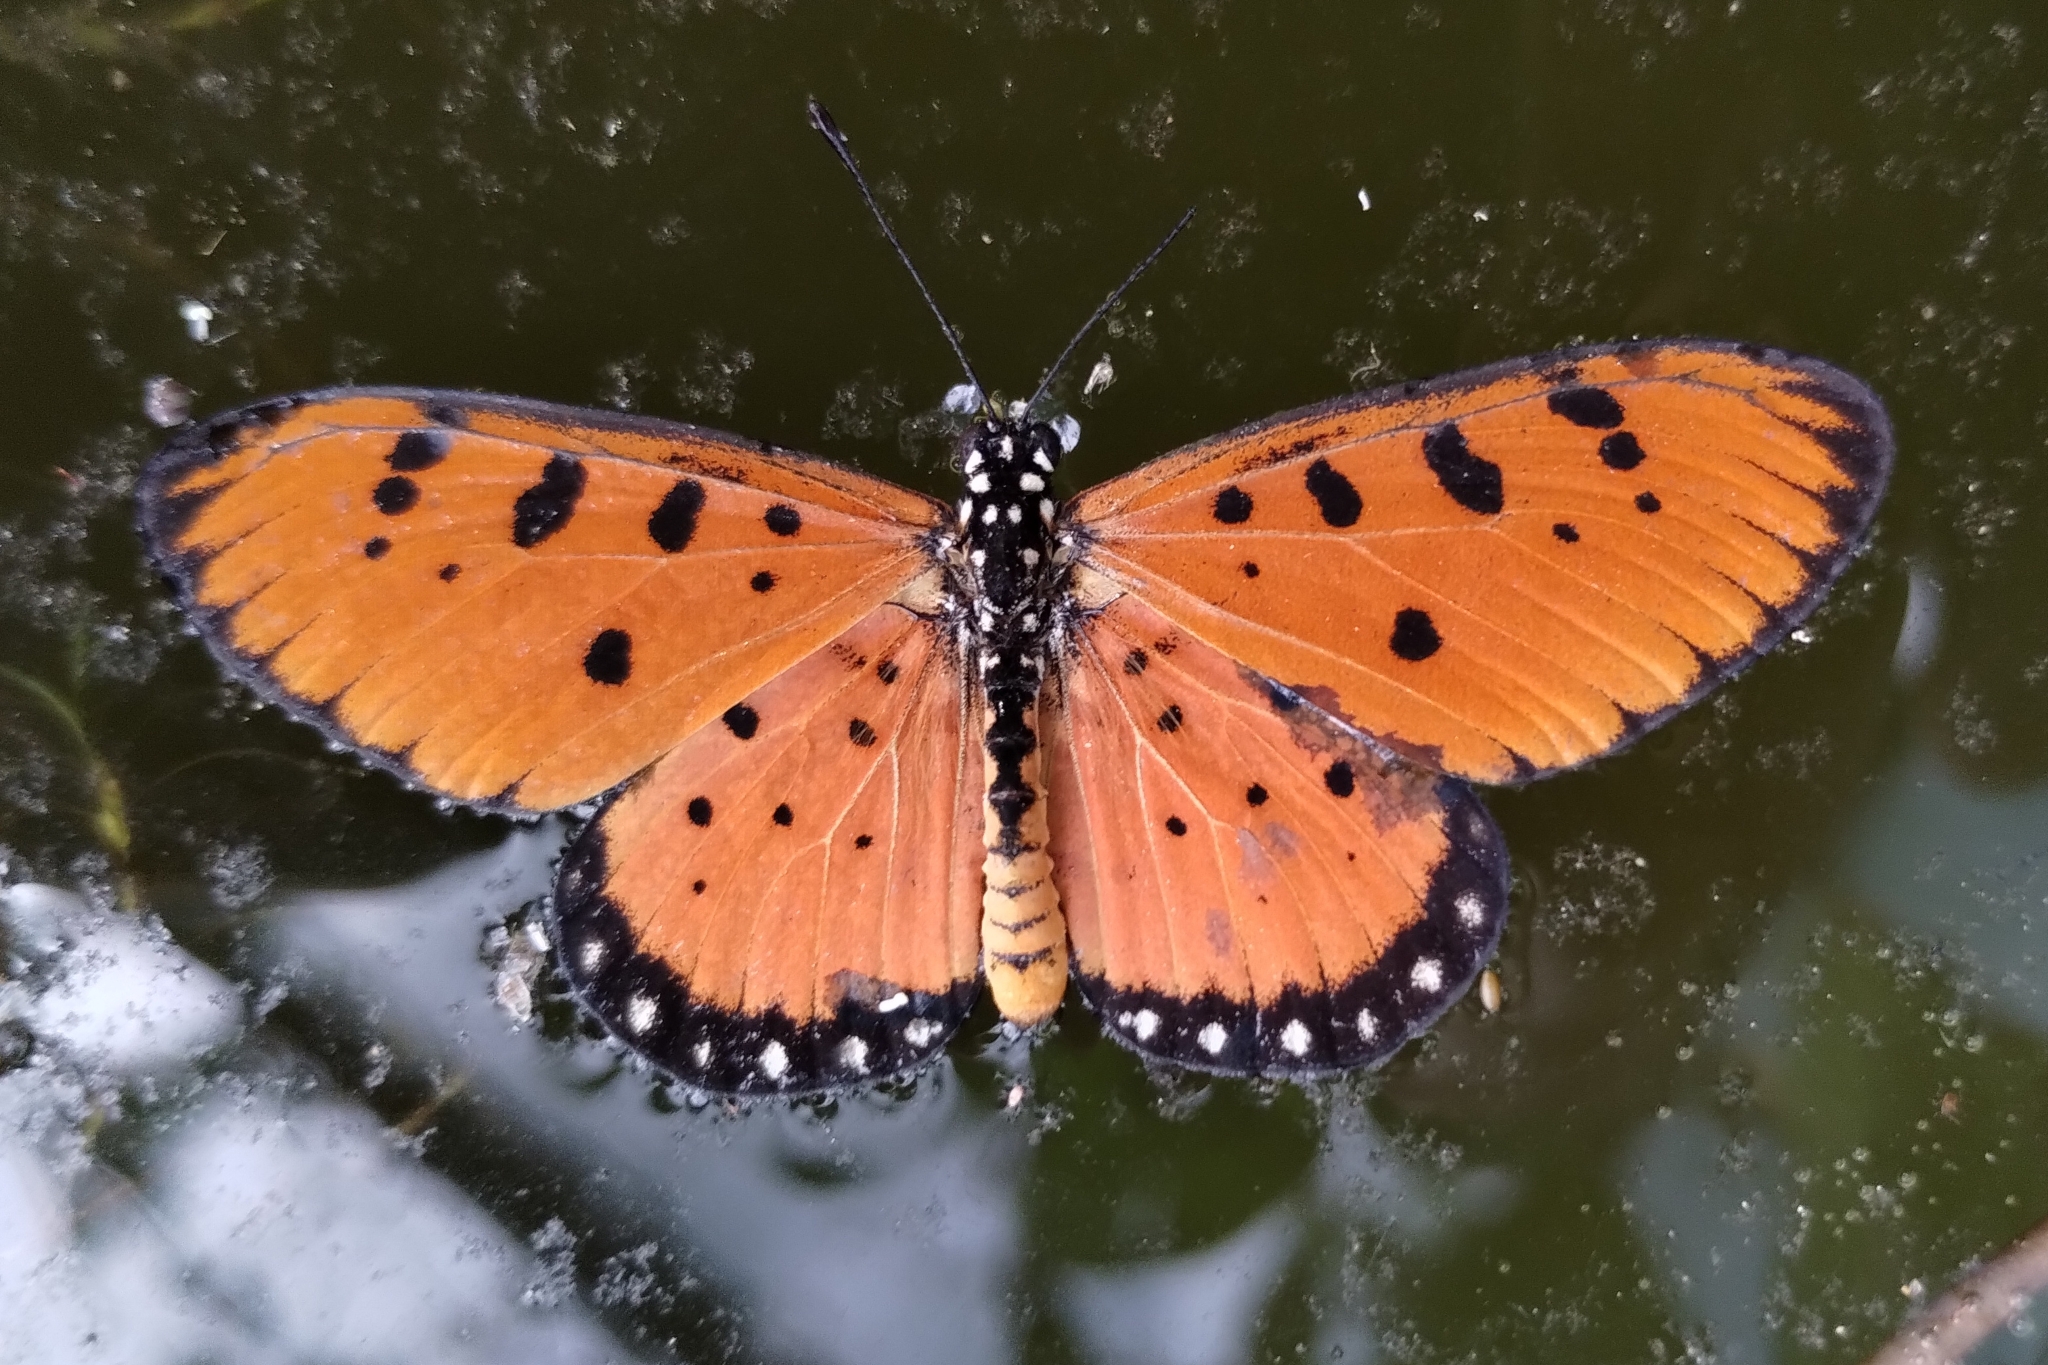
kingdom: Animalia
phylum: Arthropoda
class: Insecta
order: Lepidoptera
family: Nymphalidae
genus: Acraea
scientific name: Acraea terpsicore
